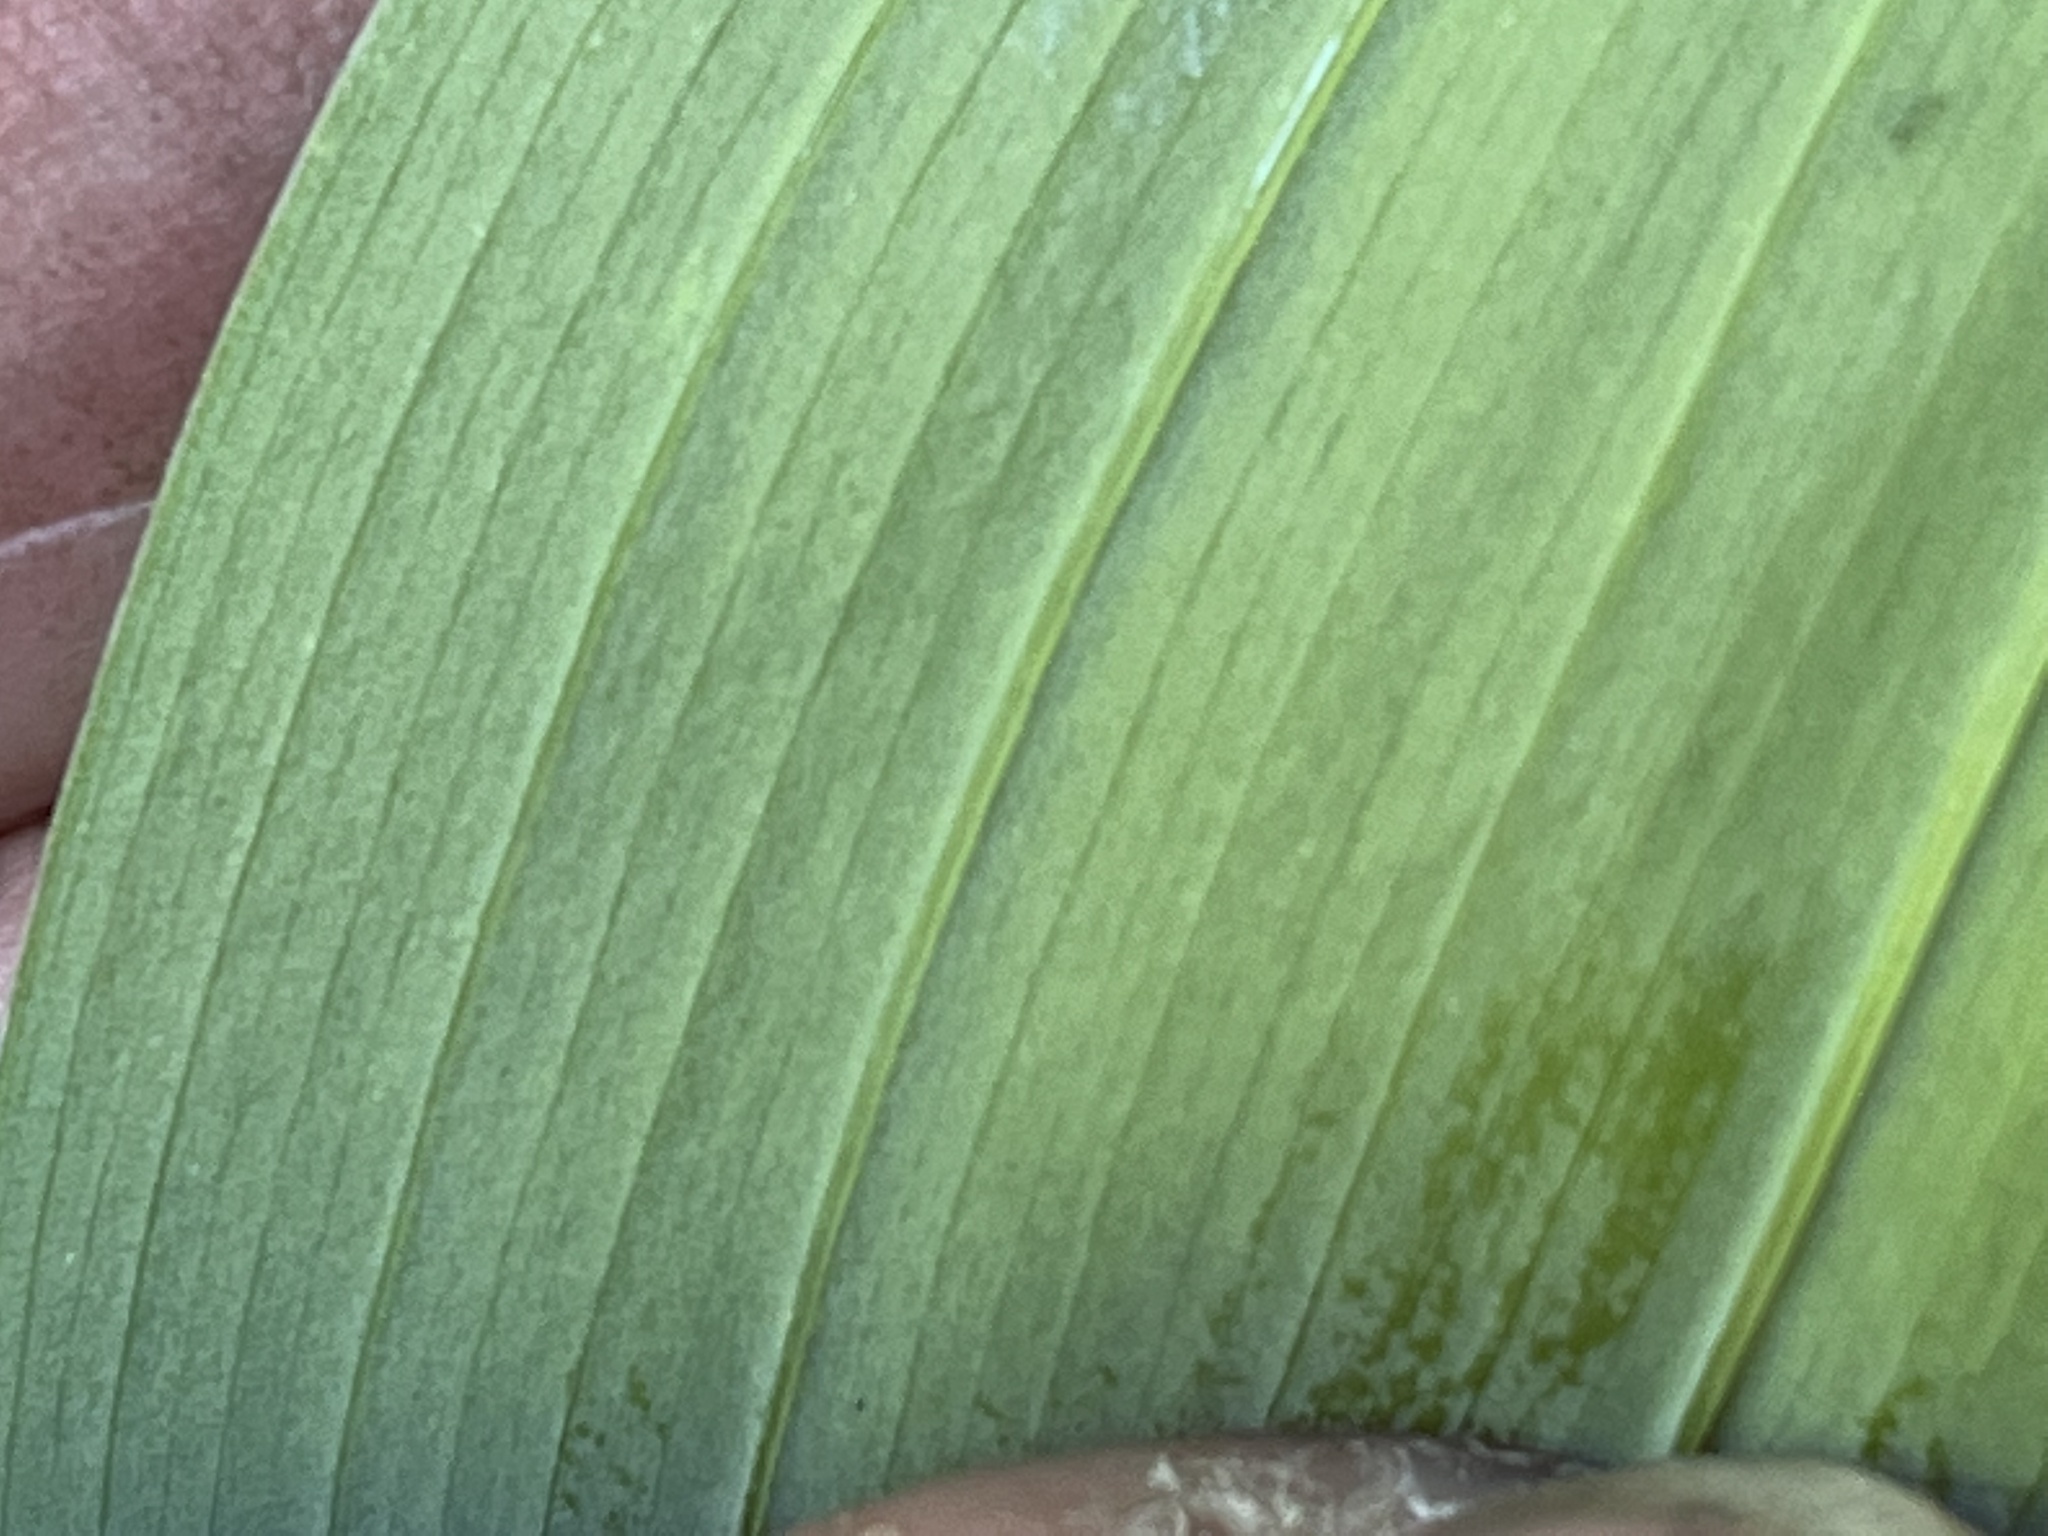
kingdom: Plantae
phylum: Tracheophyta
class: Liliopsida
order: Asparagales
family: Asparagaceae
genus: Polygonatum
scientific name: Polygonatum biflorum
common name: American solomon's-seal
